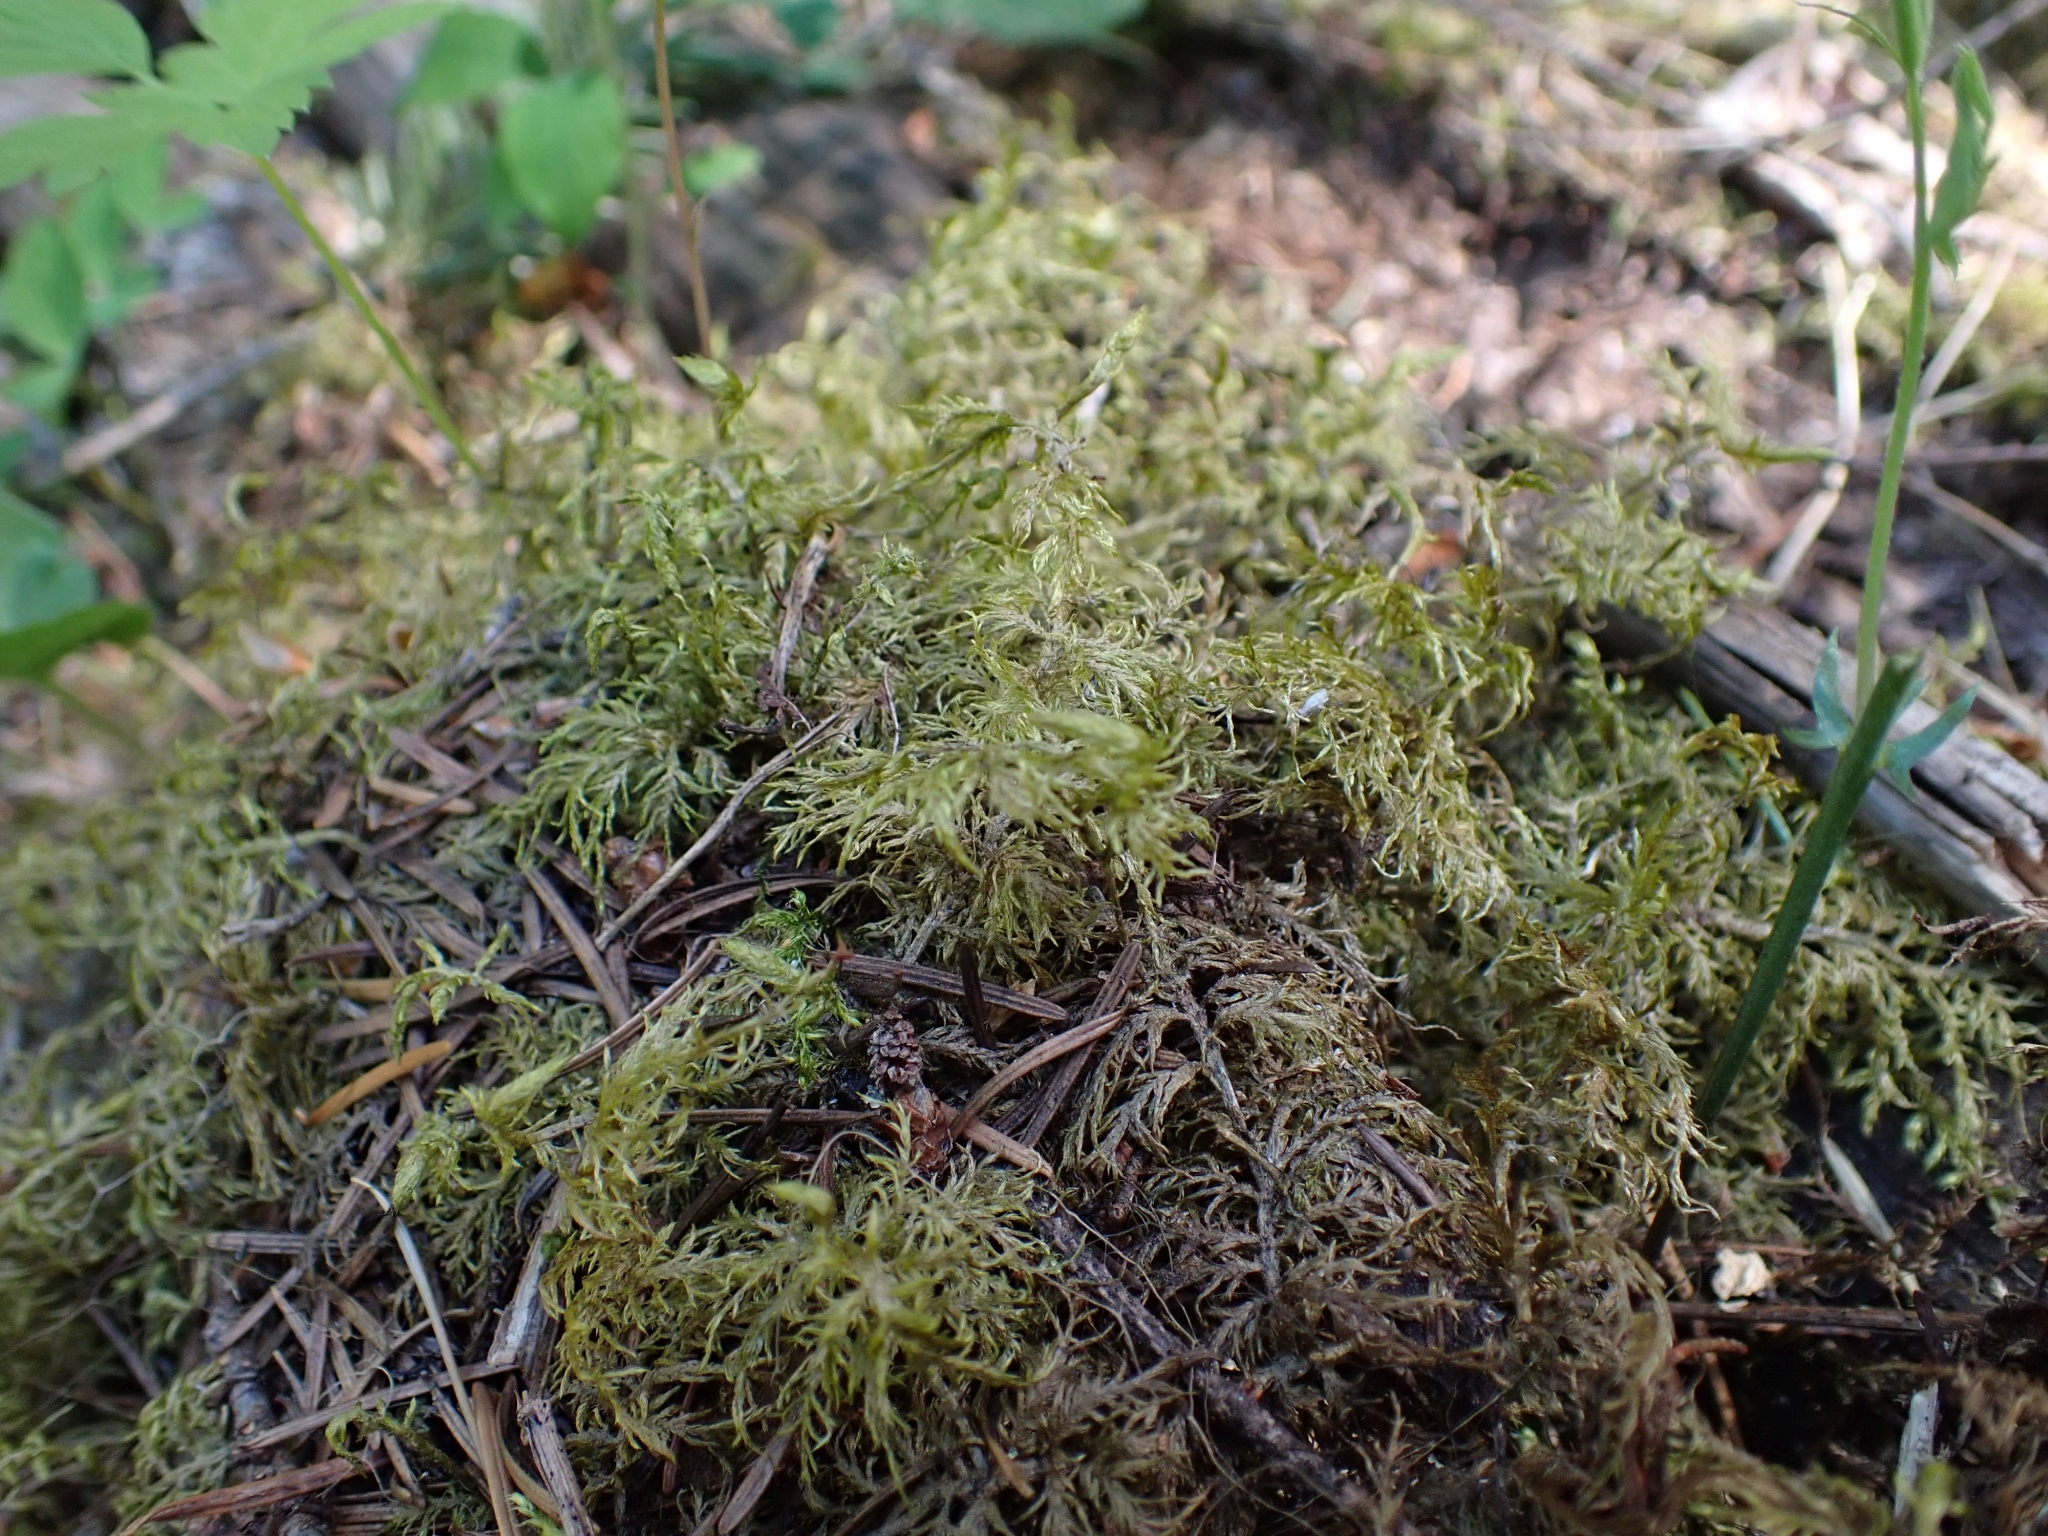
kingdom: Plantae
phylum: Bryophyta
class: Bryopsida
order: Hypnales
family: Hylocomiaceae
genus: Hylocomium
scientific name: Hylocomium splendens
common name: Stairstep moss
